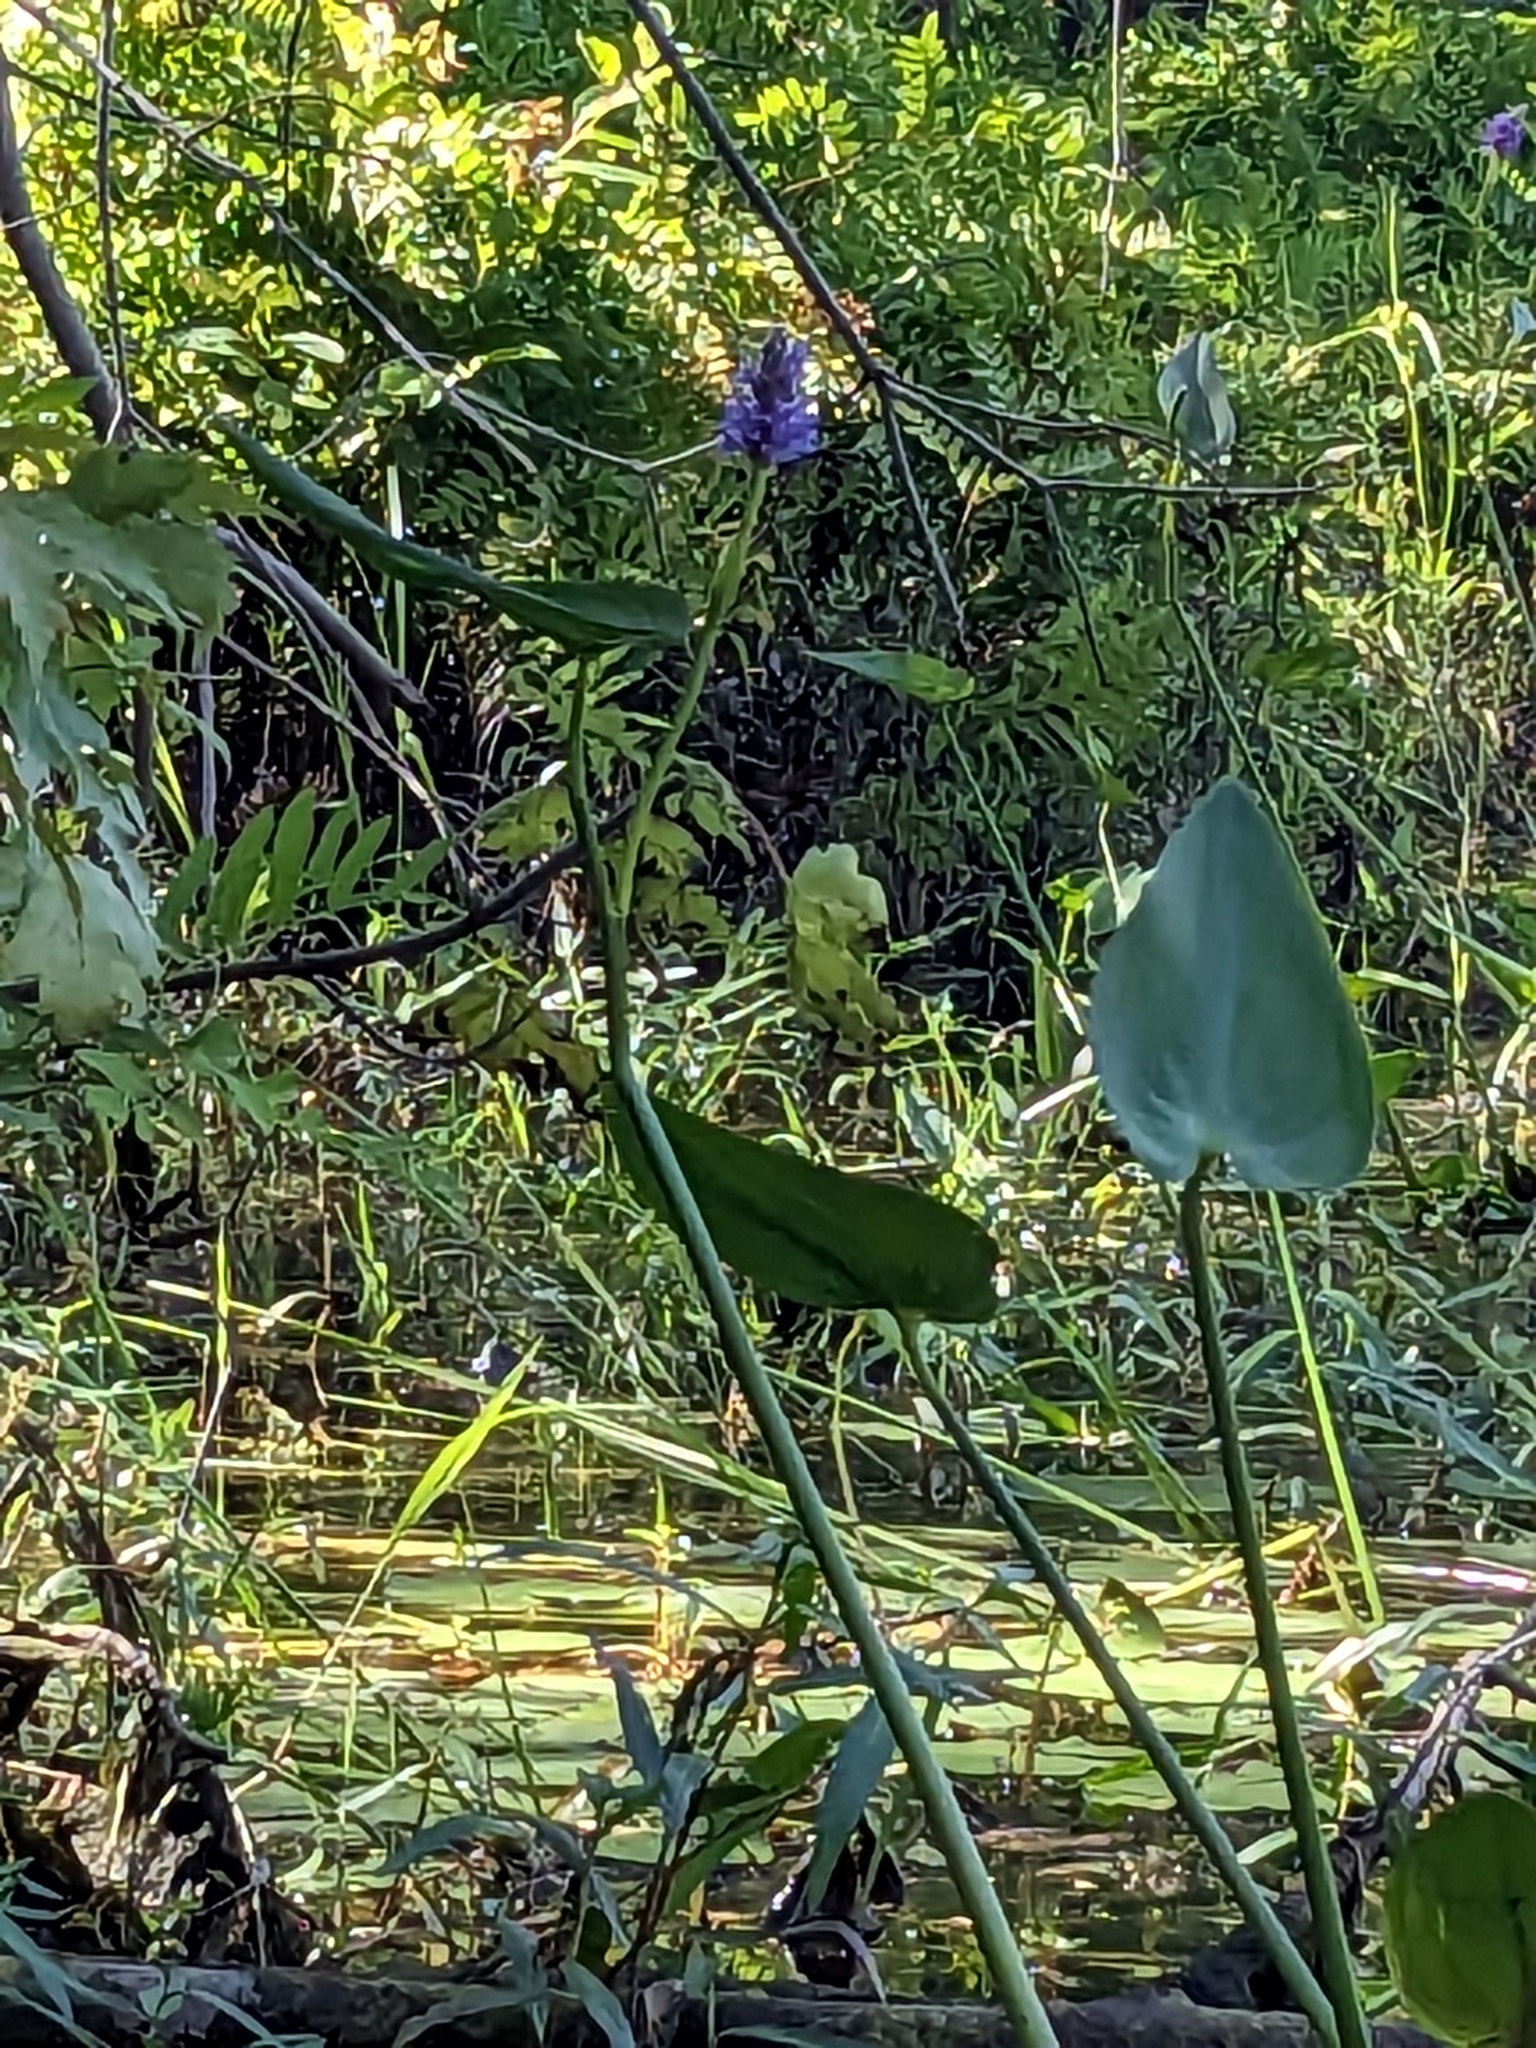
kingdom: Plantae
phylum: Tracheophyta
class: Liliopsida
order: Commelinales
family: Pontederiaceae
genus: Pontederia
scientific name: Pontederia cordata
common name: Pickerelweed
